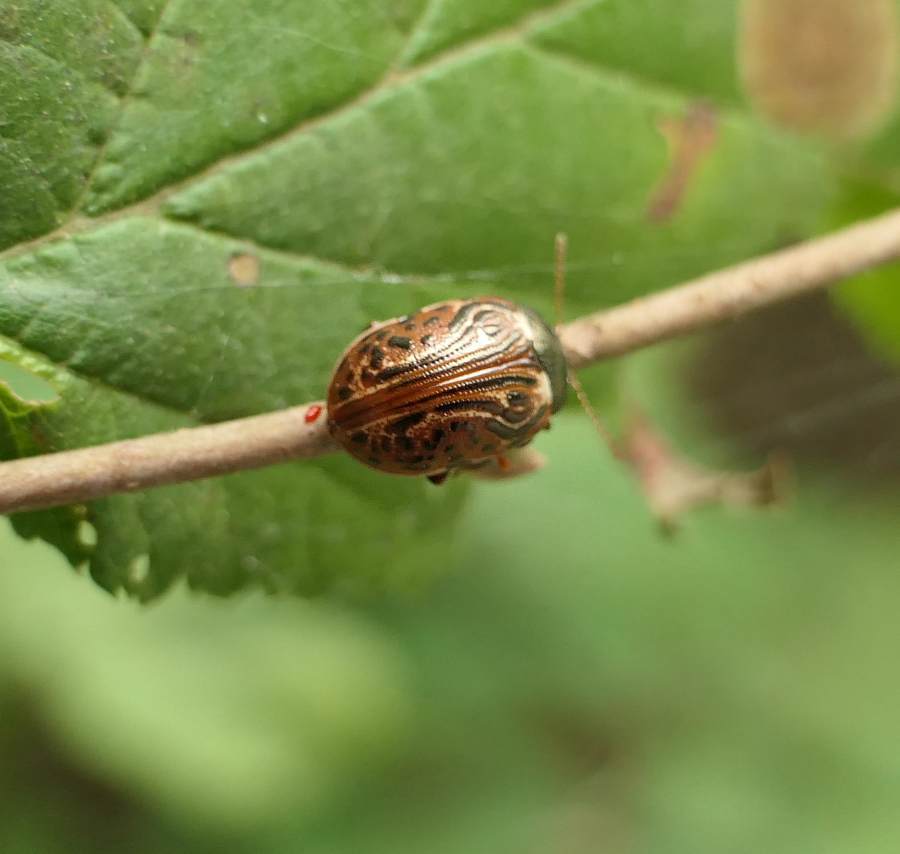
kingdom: Animalia
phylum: Arthropoda
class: Insecta
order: Coleoptera
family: Chrysomelidae
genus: Calligrapha
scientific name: Calligrapha alni
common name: Russet alder leaf beetle
